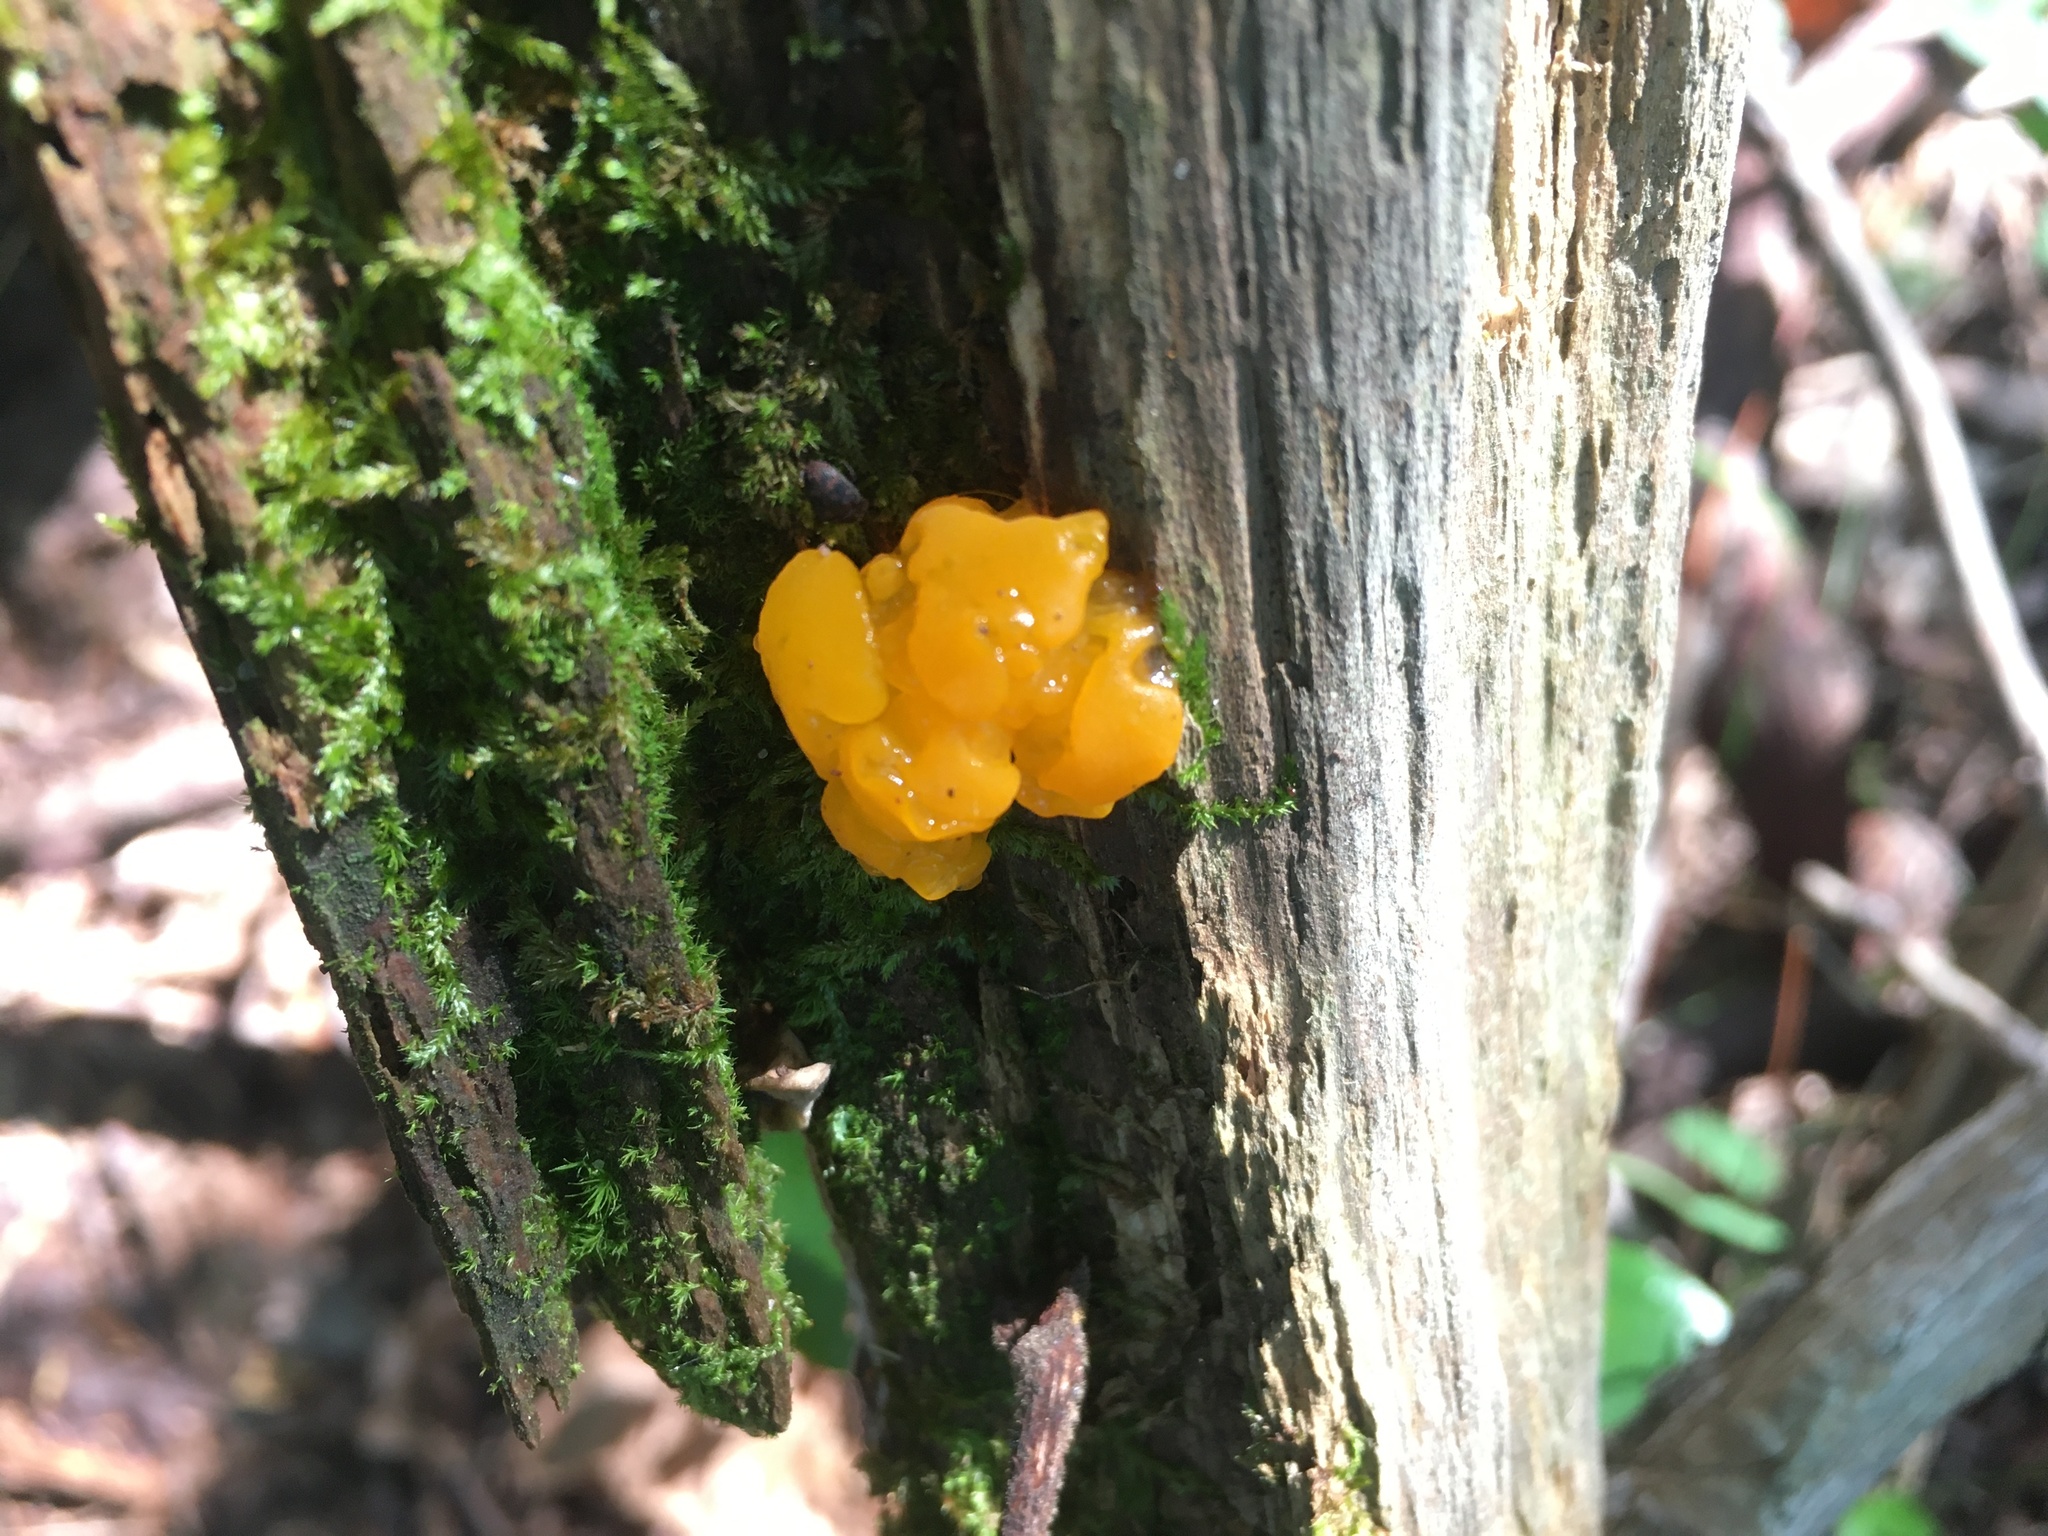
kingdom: Fungi
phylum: Basidiomycota
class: Tremellomycetes
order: Tremellales
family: Tremellaceae
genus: Tremella
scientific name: Tremella mesenterica
